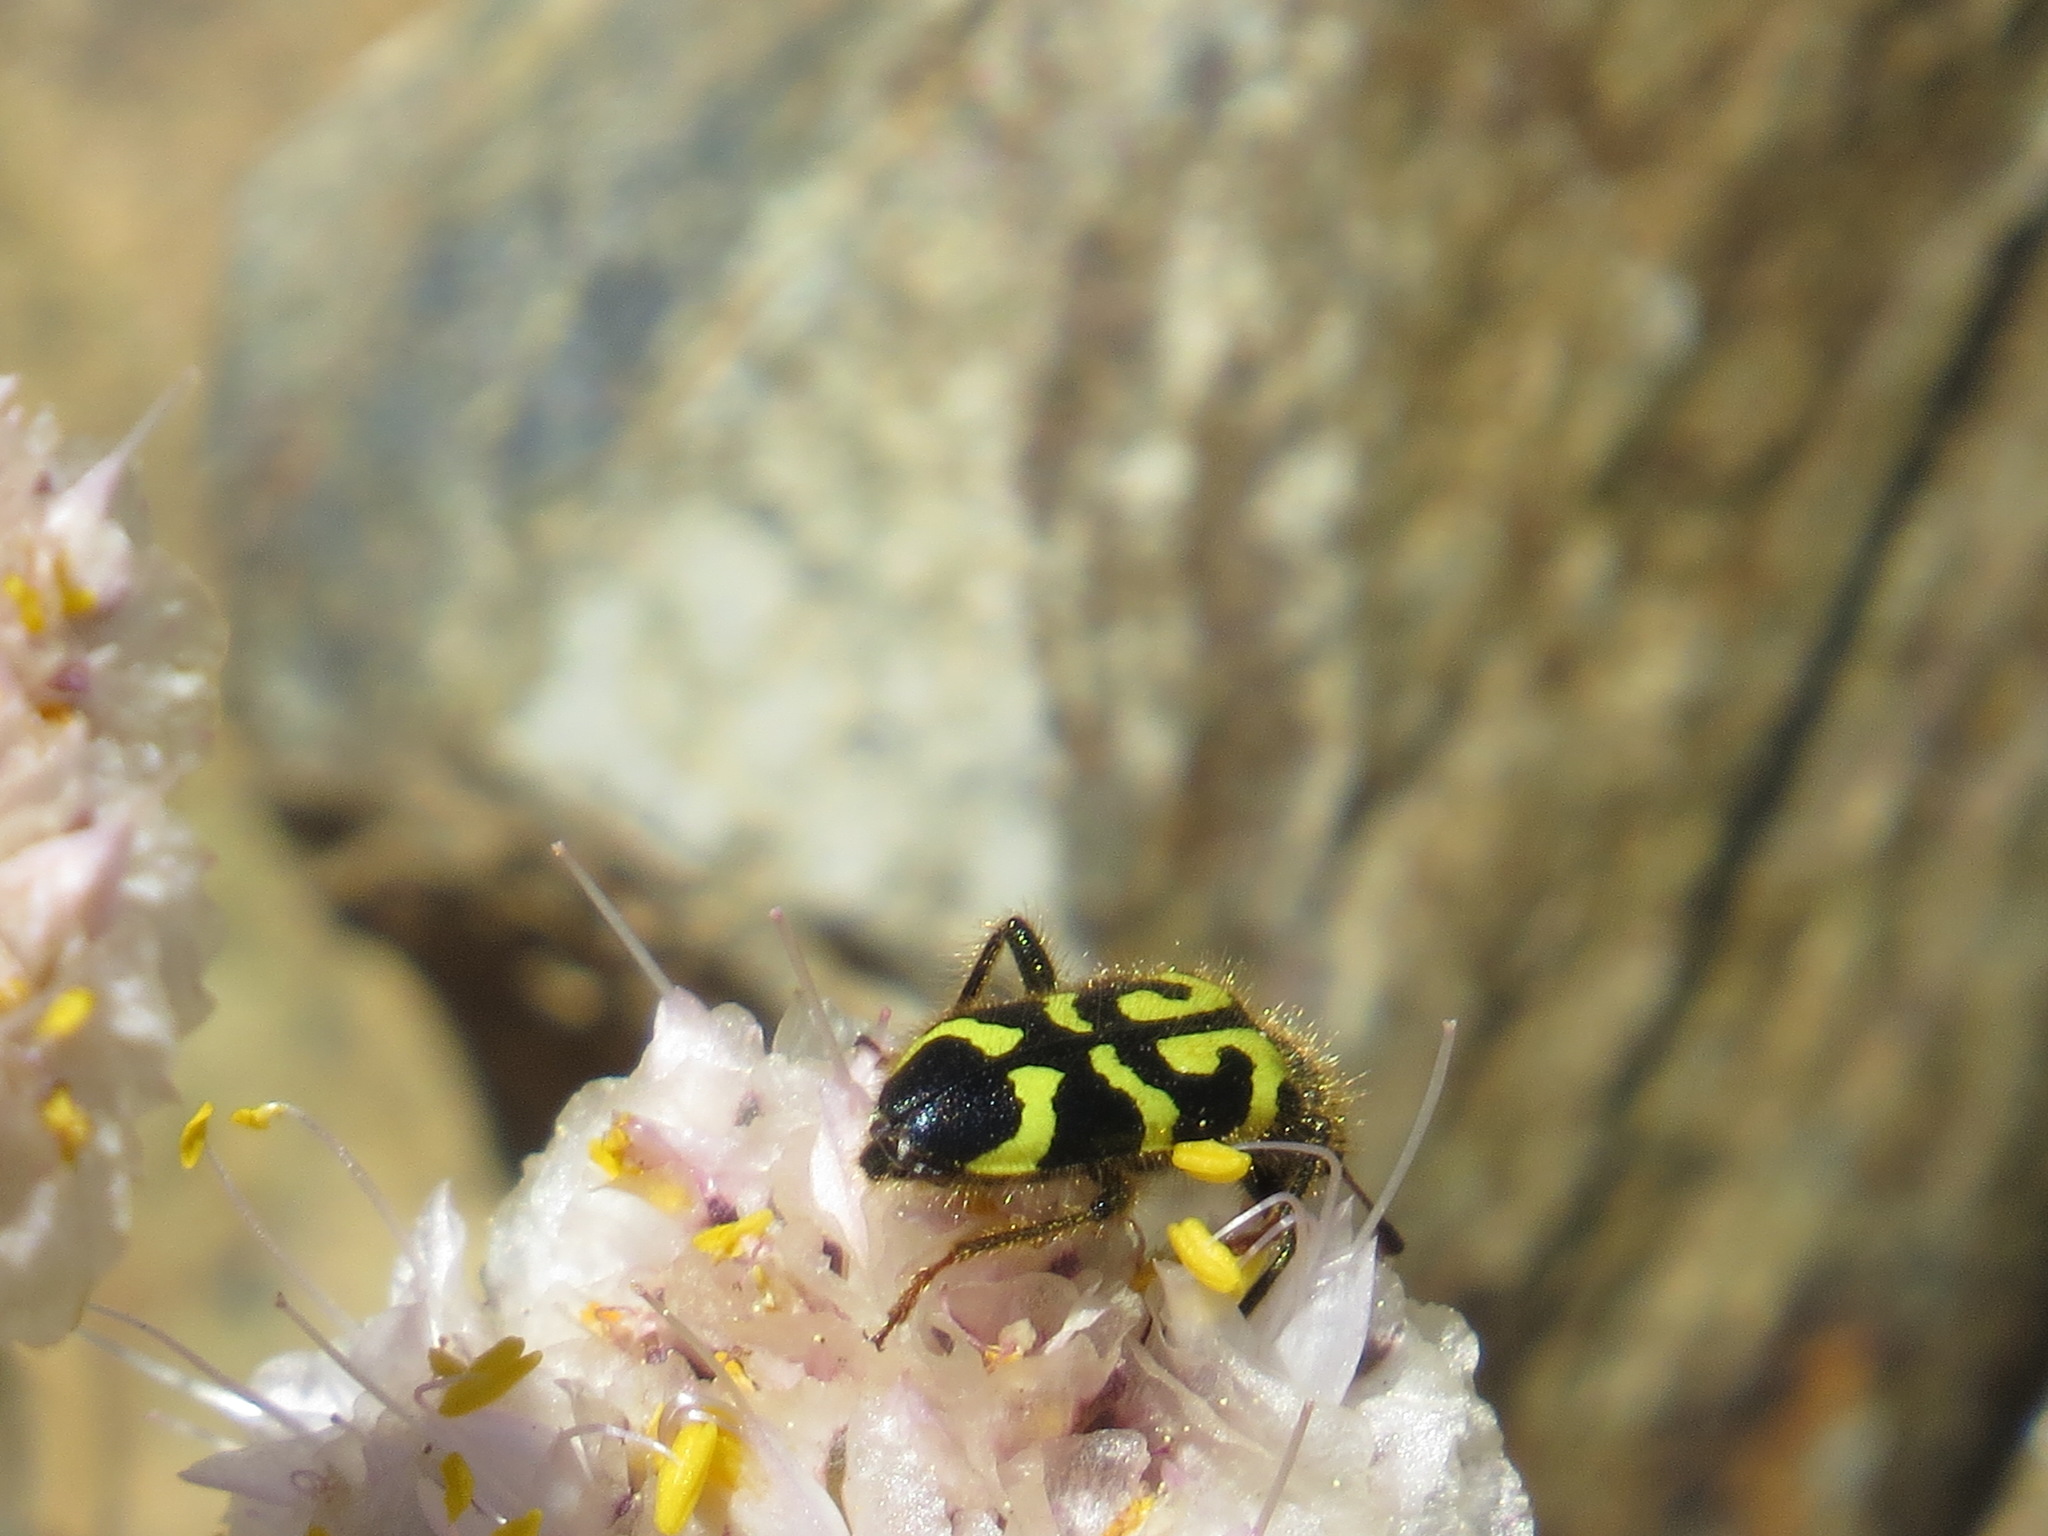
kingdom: Animalia
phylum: Arthropoda
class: Insecta
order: Coleoptera
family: Cleridae
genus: Trichodes
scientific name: Trichodes ornatus
